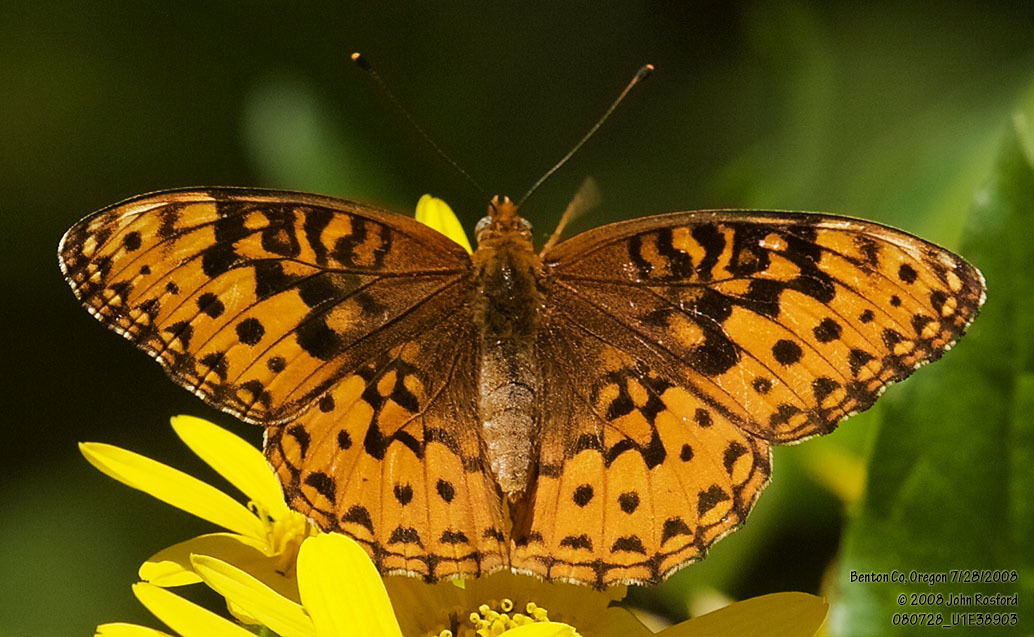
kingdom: Animalia
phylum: Arthropoda
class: Insecta
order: Lepidoptera
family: Nymphalidae
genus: Speyeria
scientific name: Speyeria hydaspe
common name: Hydaspe fritillary
